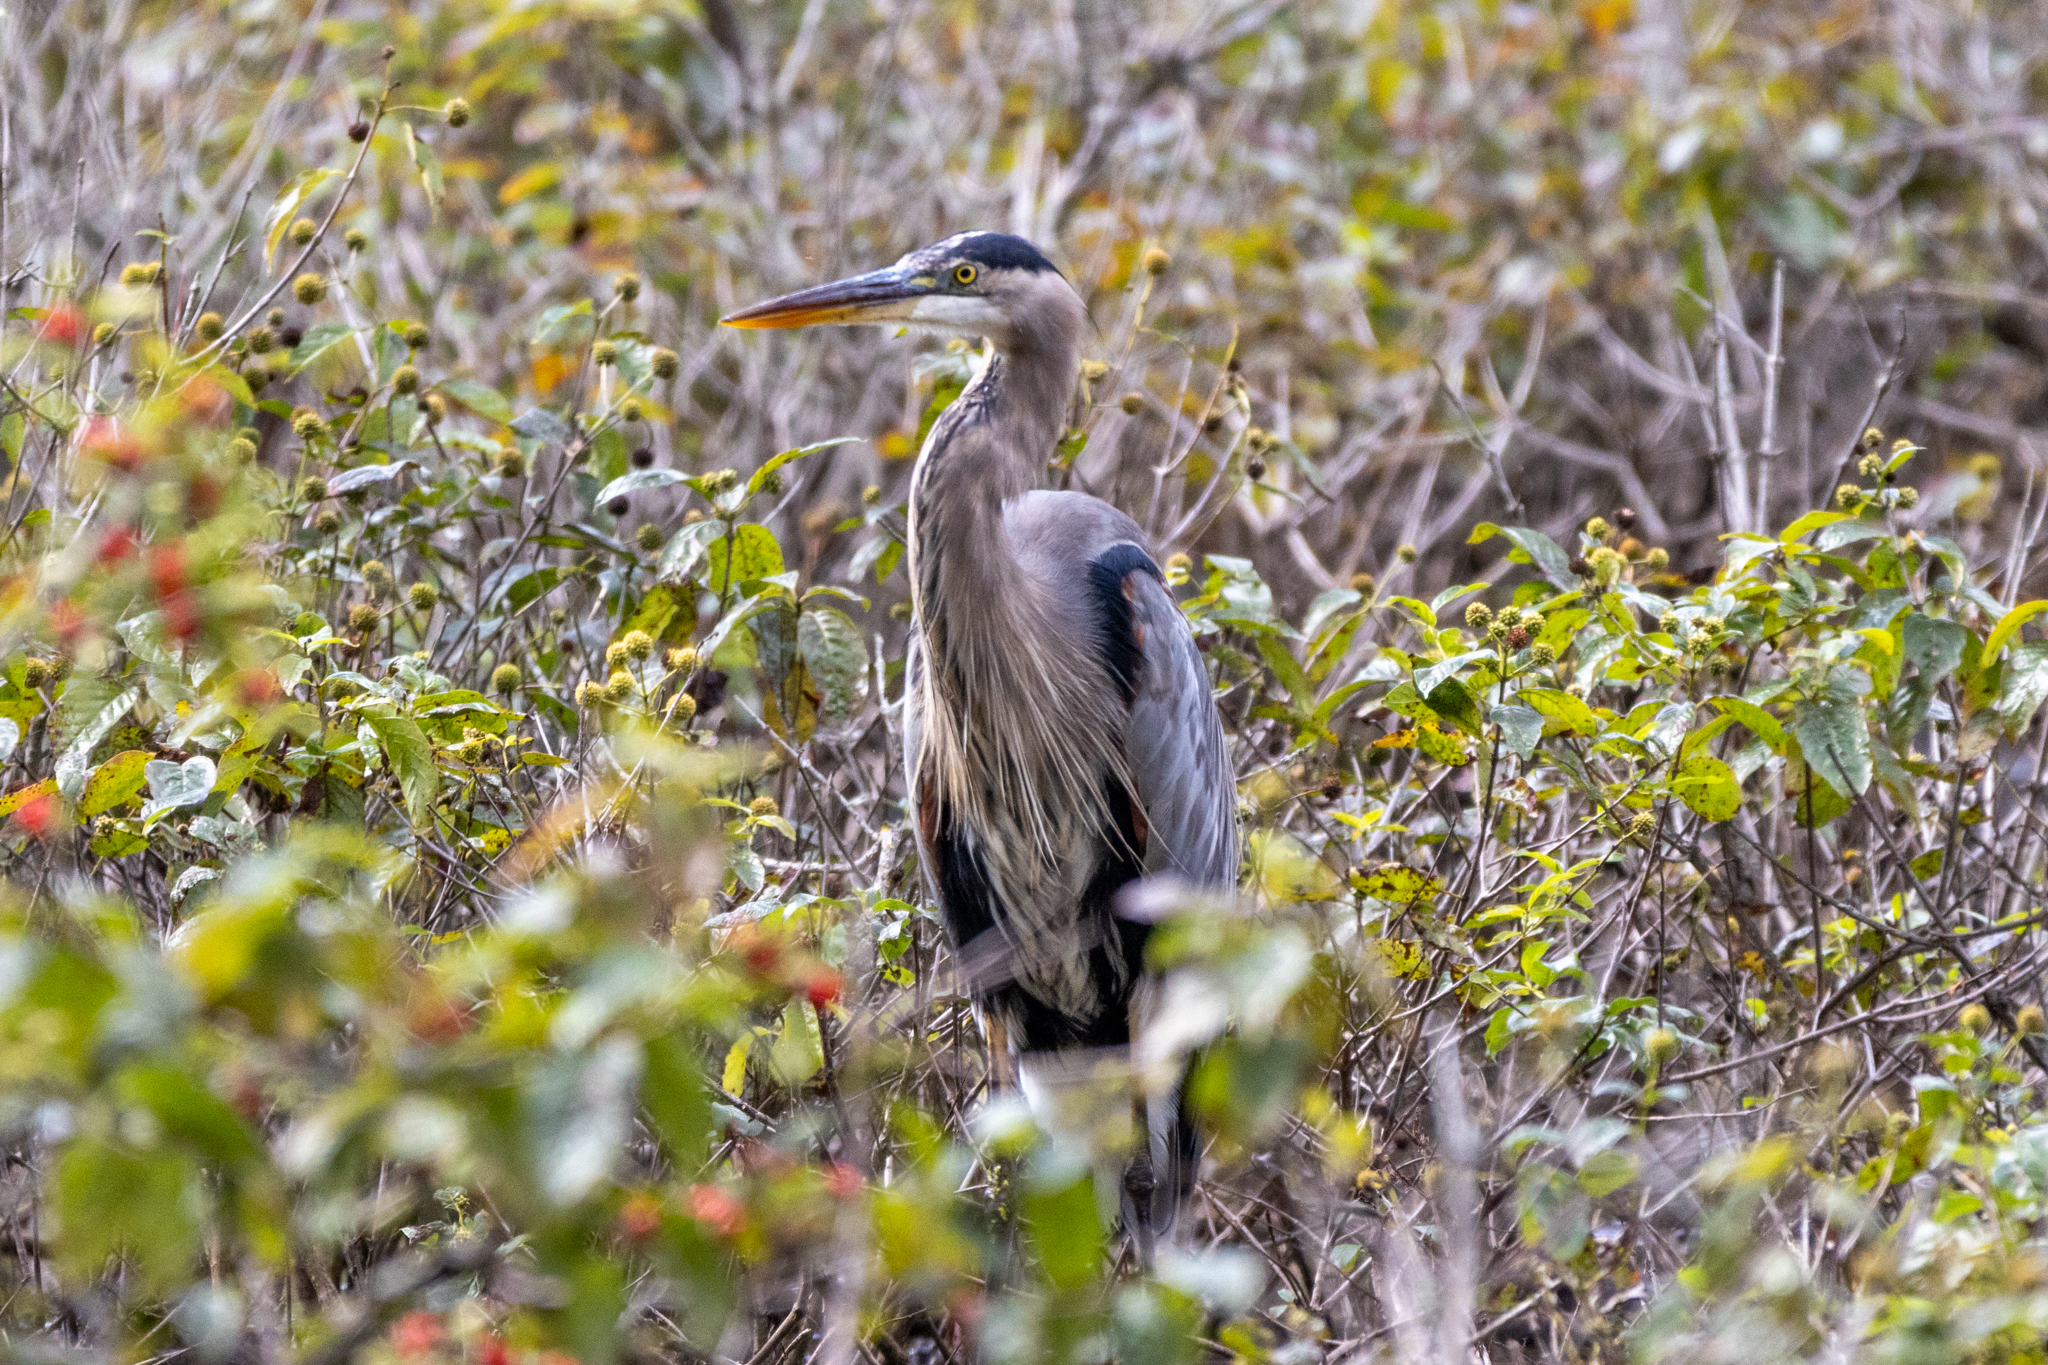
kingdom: Animalia
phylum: Chordata
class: Aves
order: Pelecaniformes
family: Ardeidae
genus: Ardea
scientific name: Ardea herodias
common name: Great blue heron
